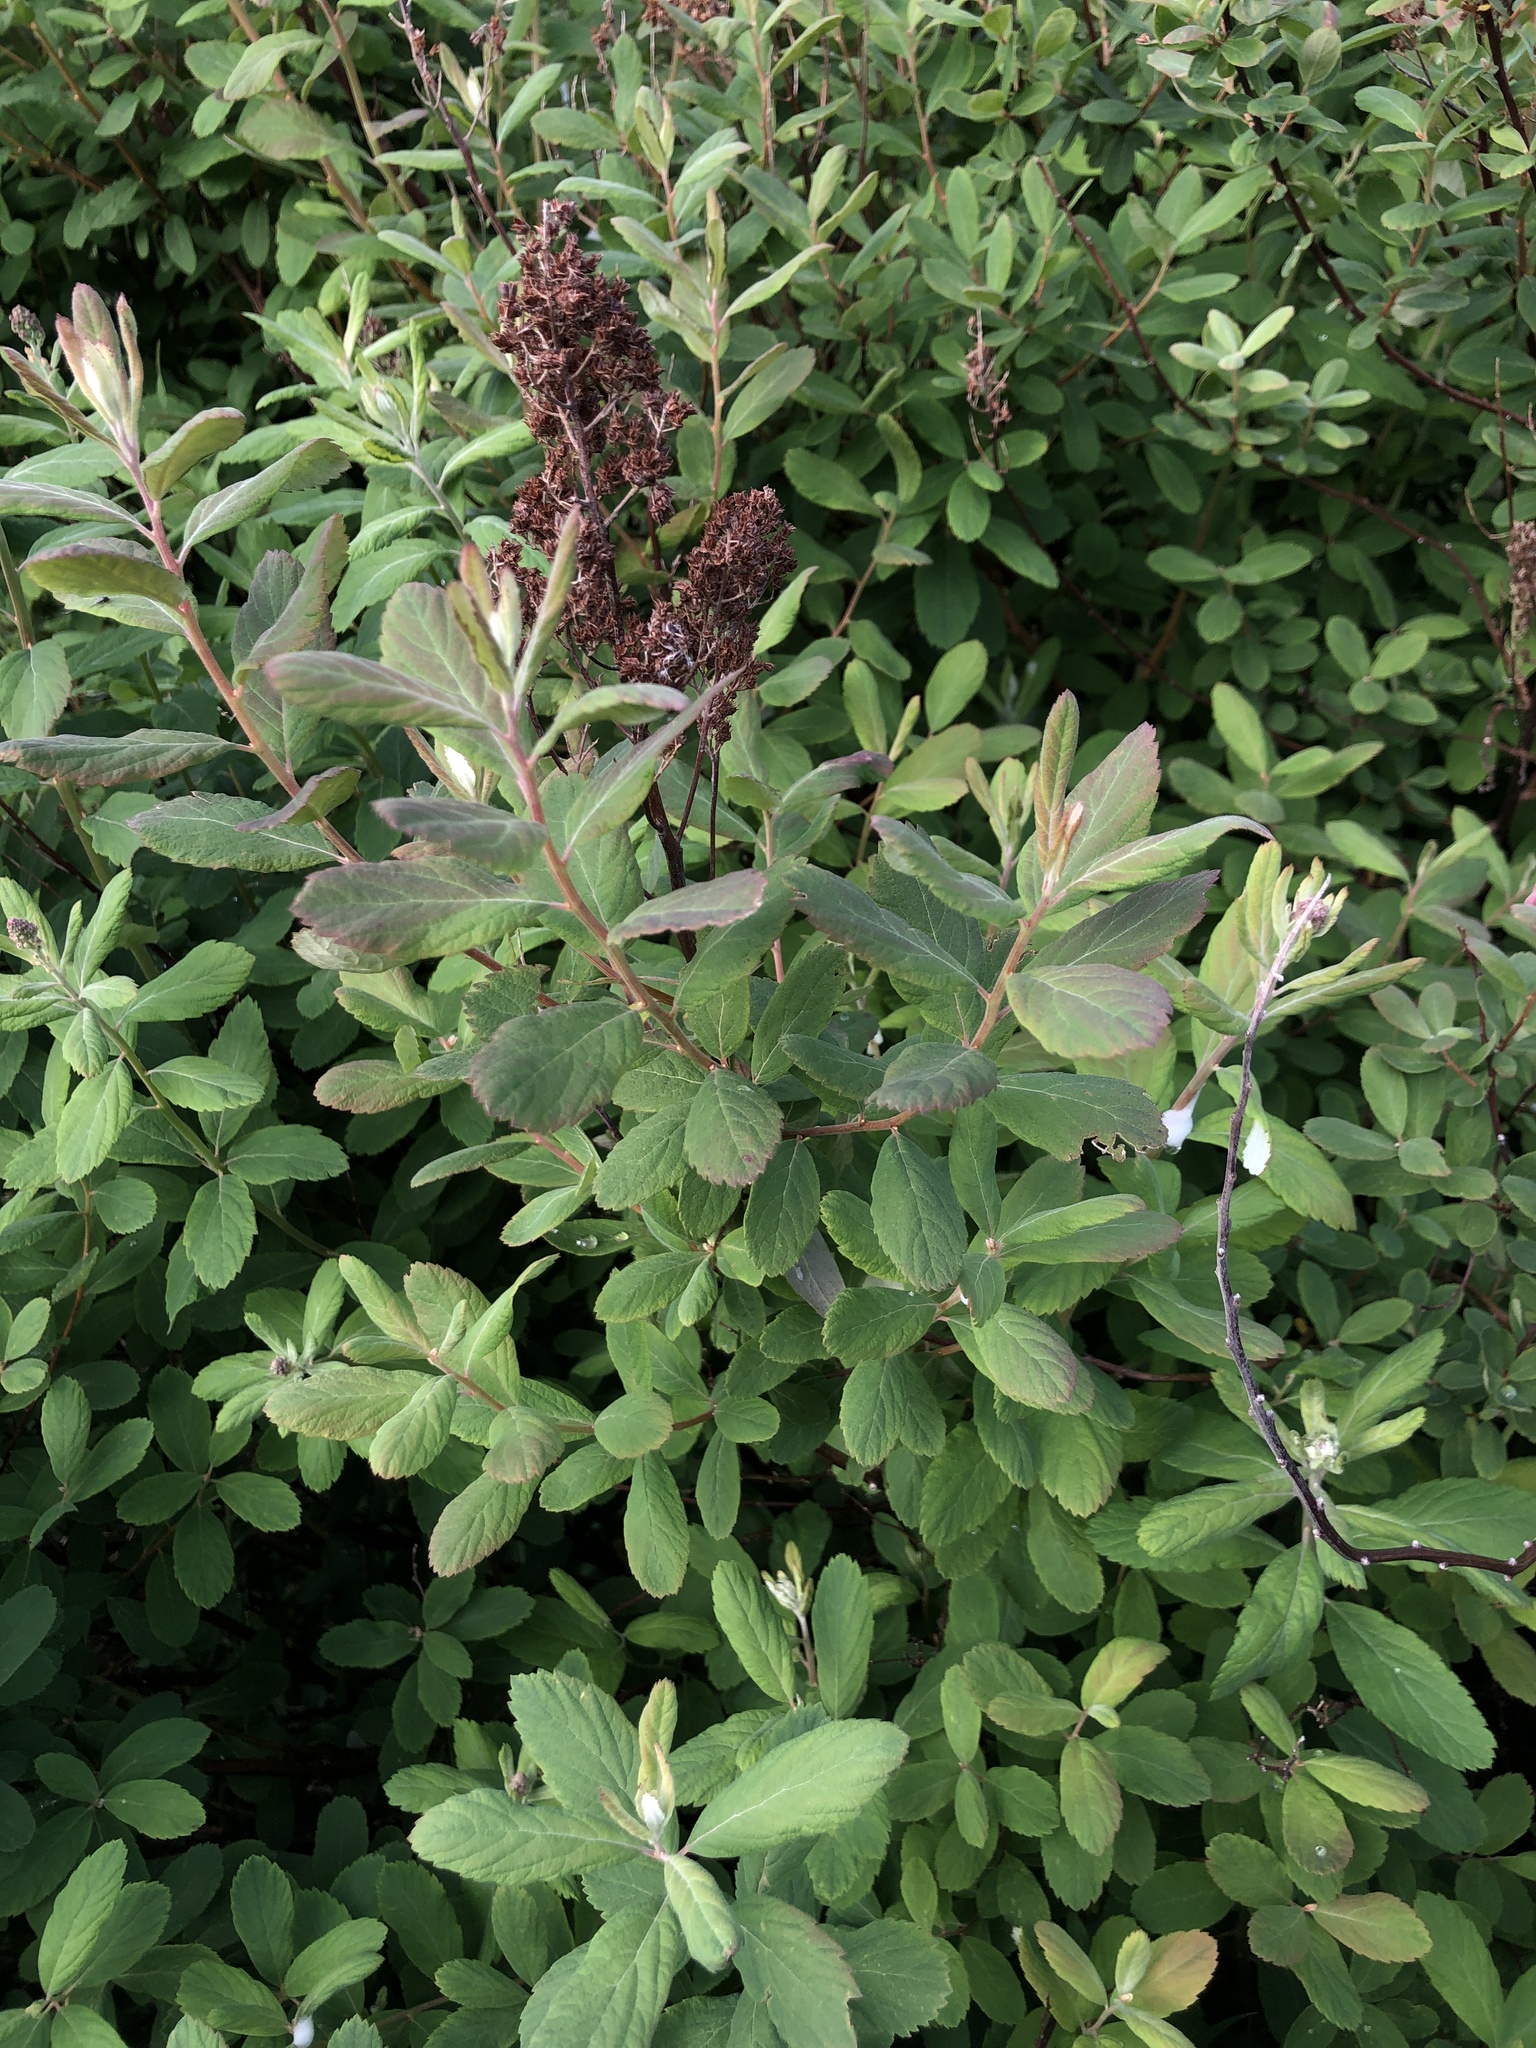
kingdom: Plantae
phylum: Tracheophyta
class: Magnoliopsida
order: Rosales
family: Rosaceae
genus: Spiraea
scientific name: Spiraea douglasii
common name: Steeplebush
